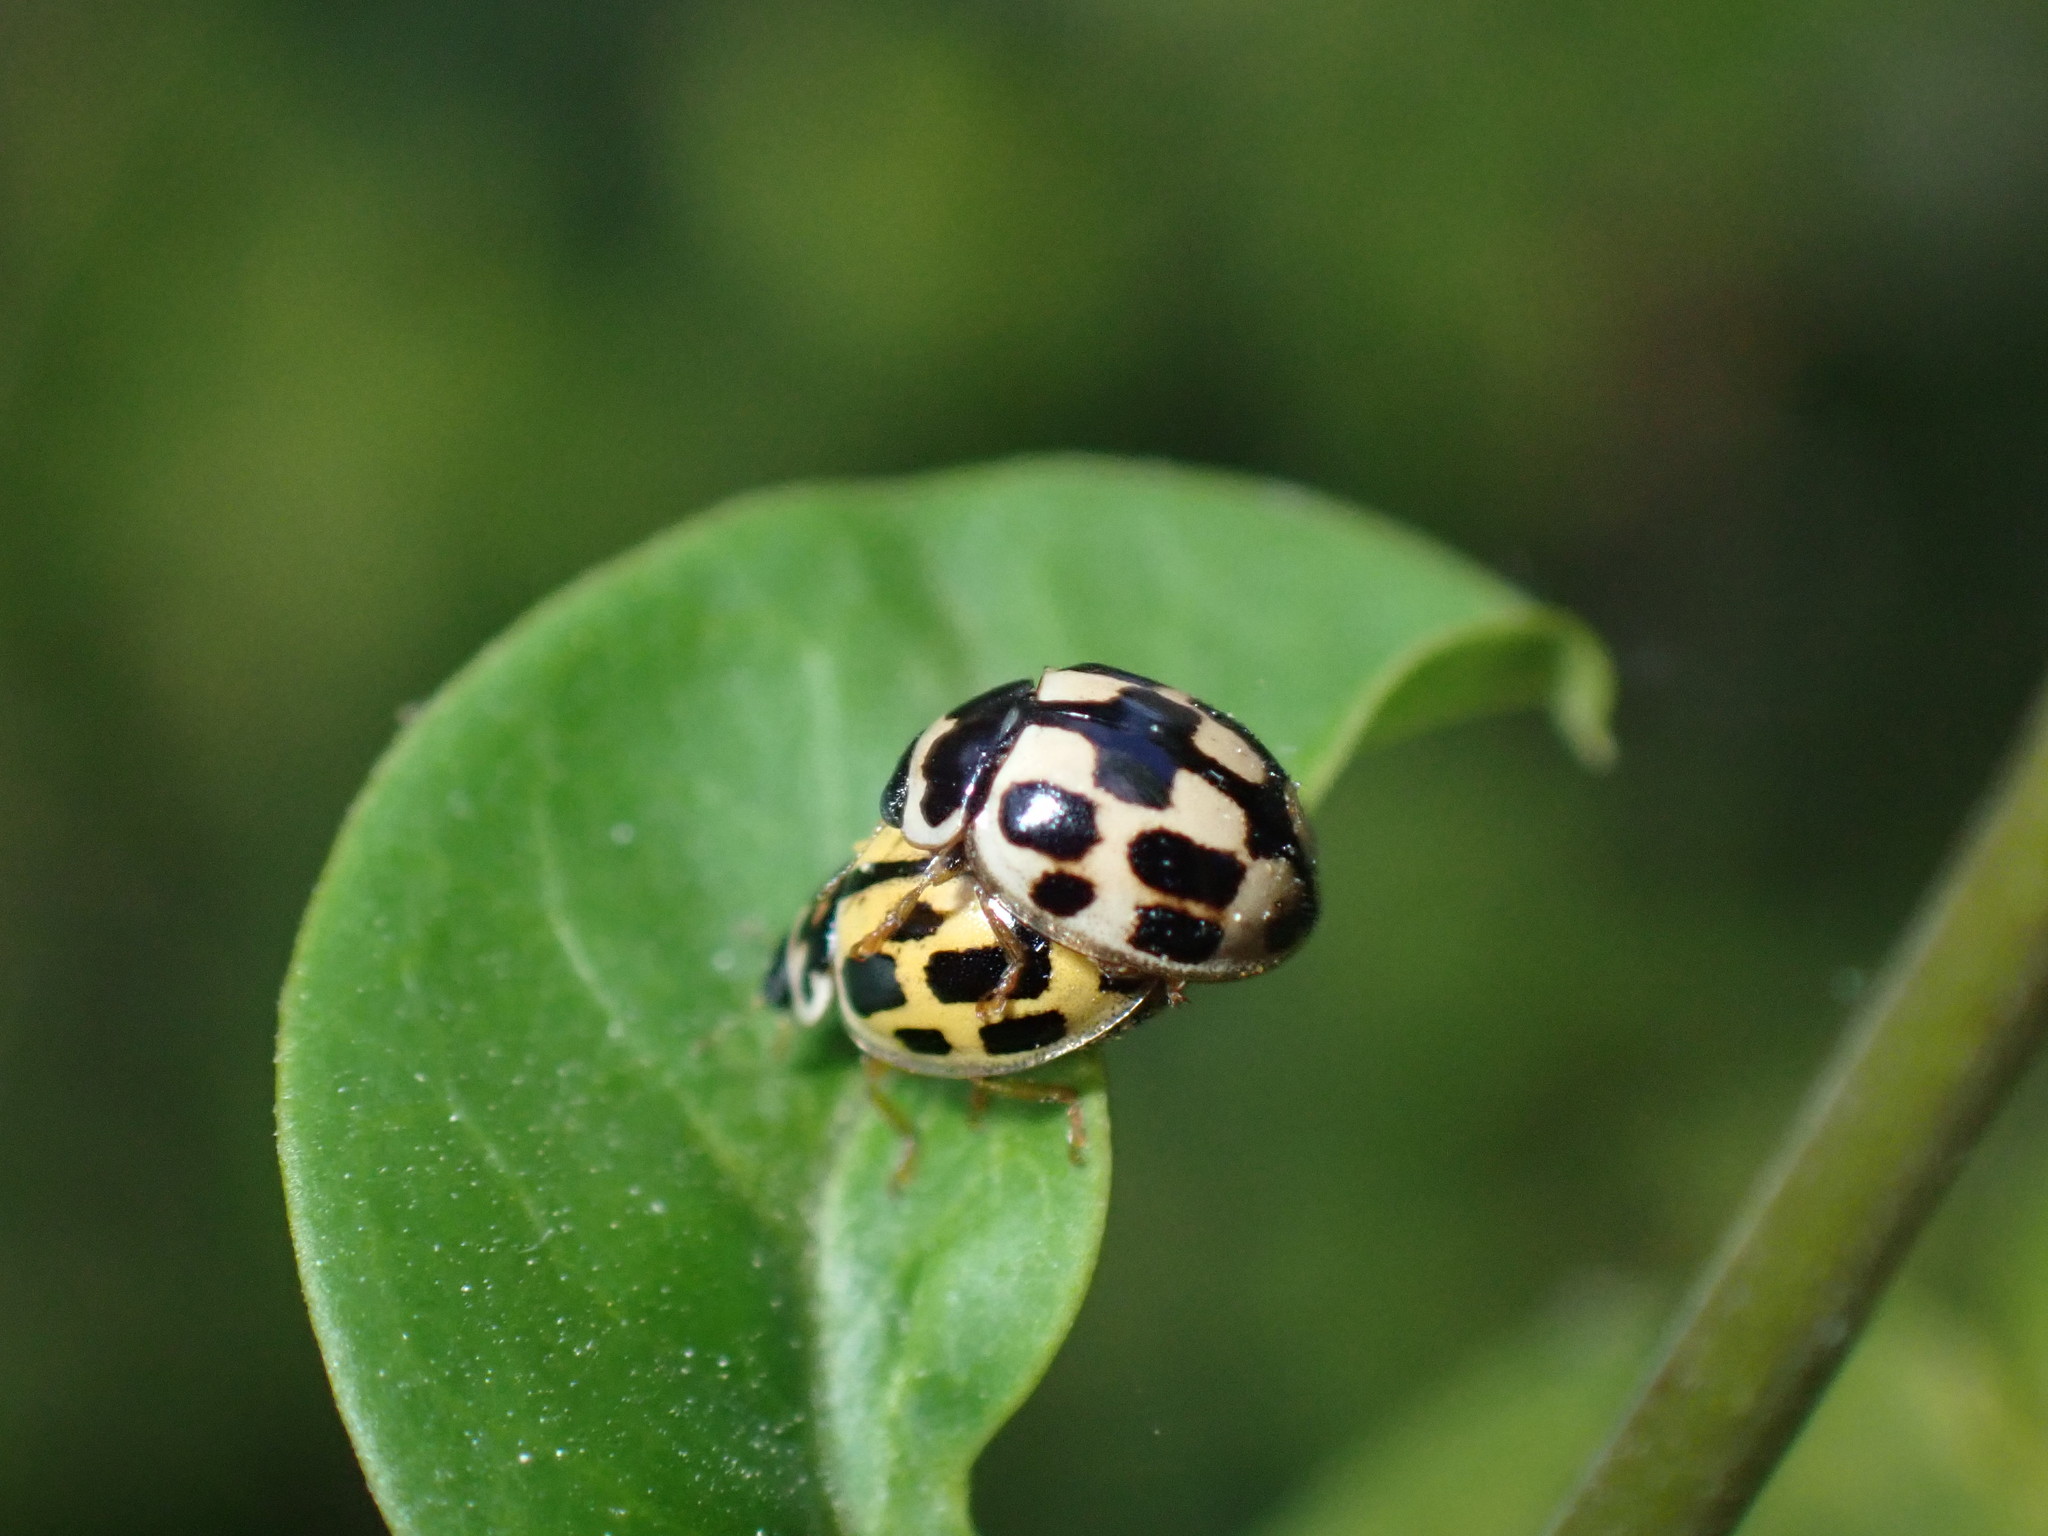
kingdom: Animalia
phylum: Arthropoda
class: Insecta
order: Coleoptera
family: Coccinellidae
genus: Propylaea
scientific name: Propylaea quatuordecimpunctata
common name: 14-spotted ladybird beetle
